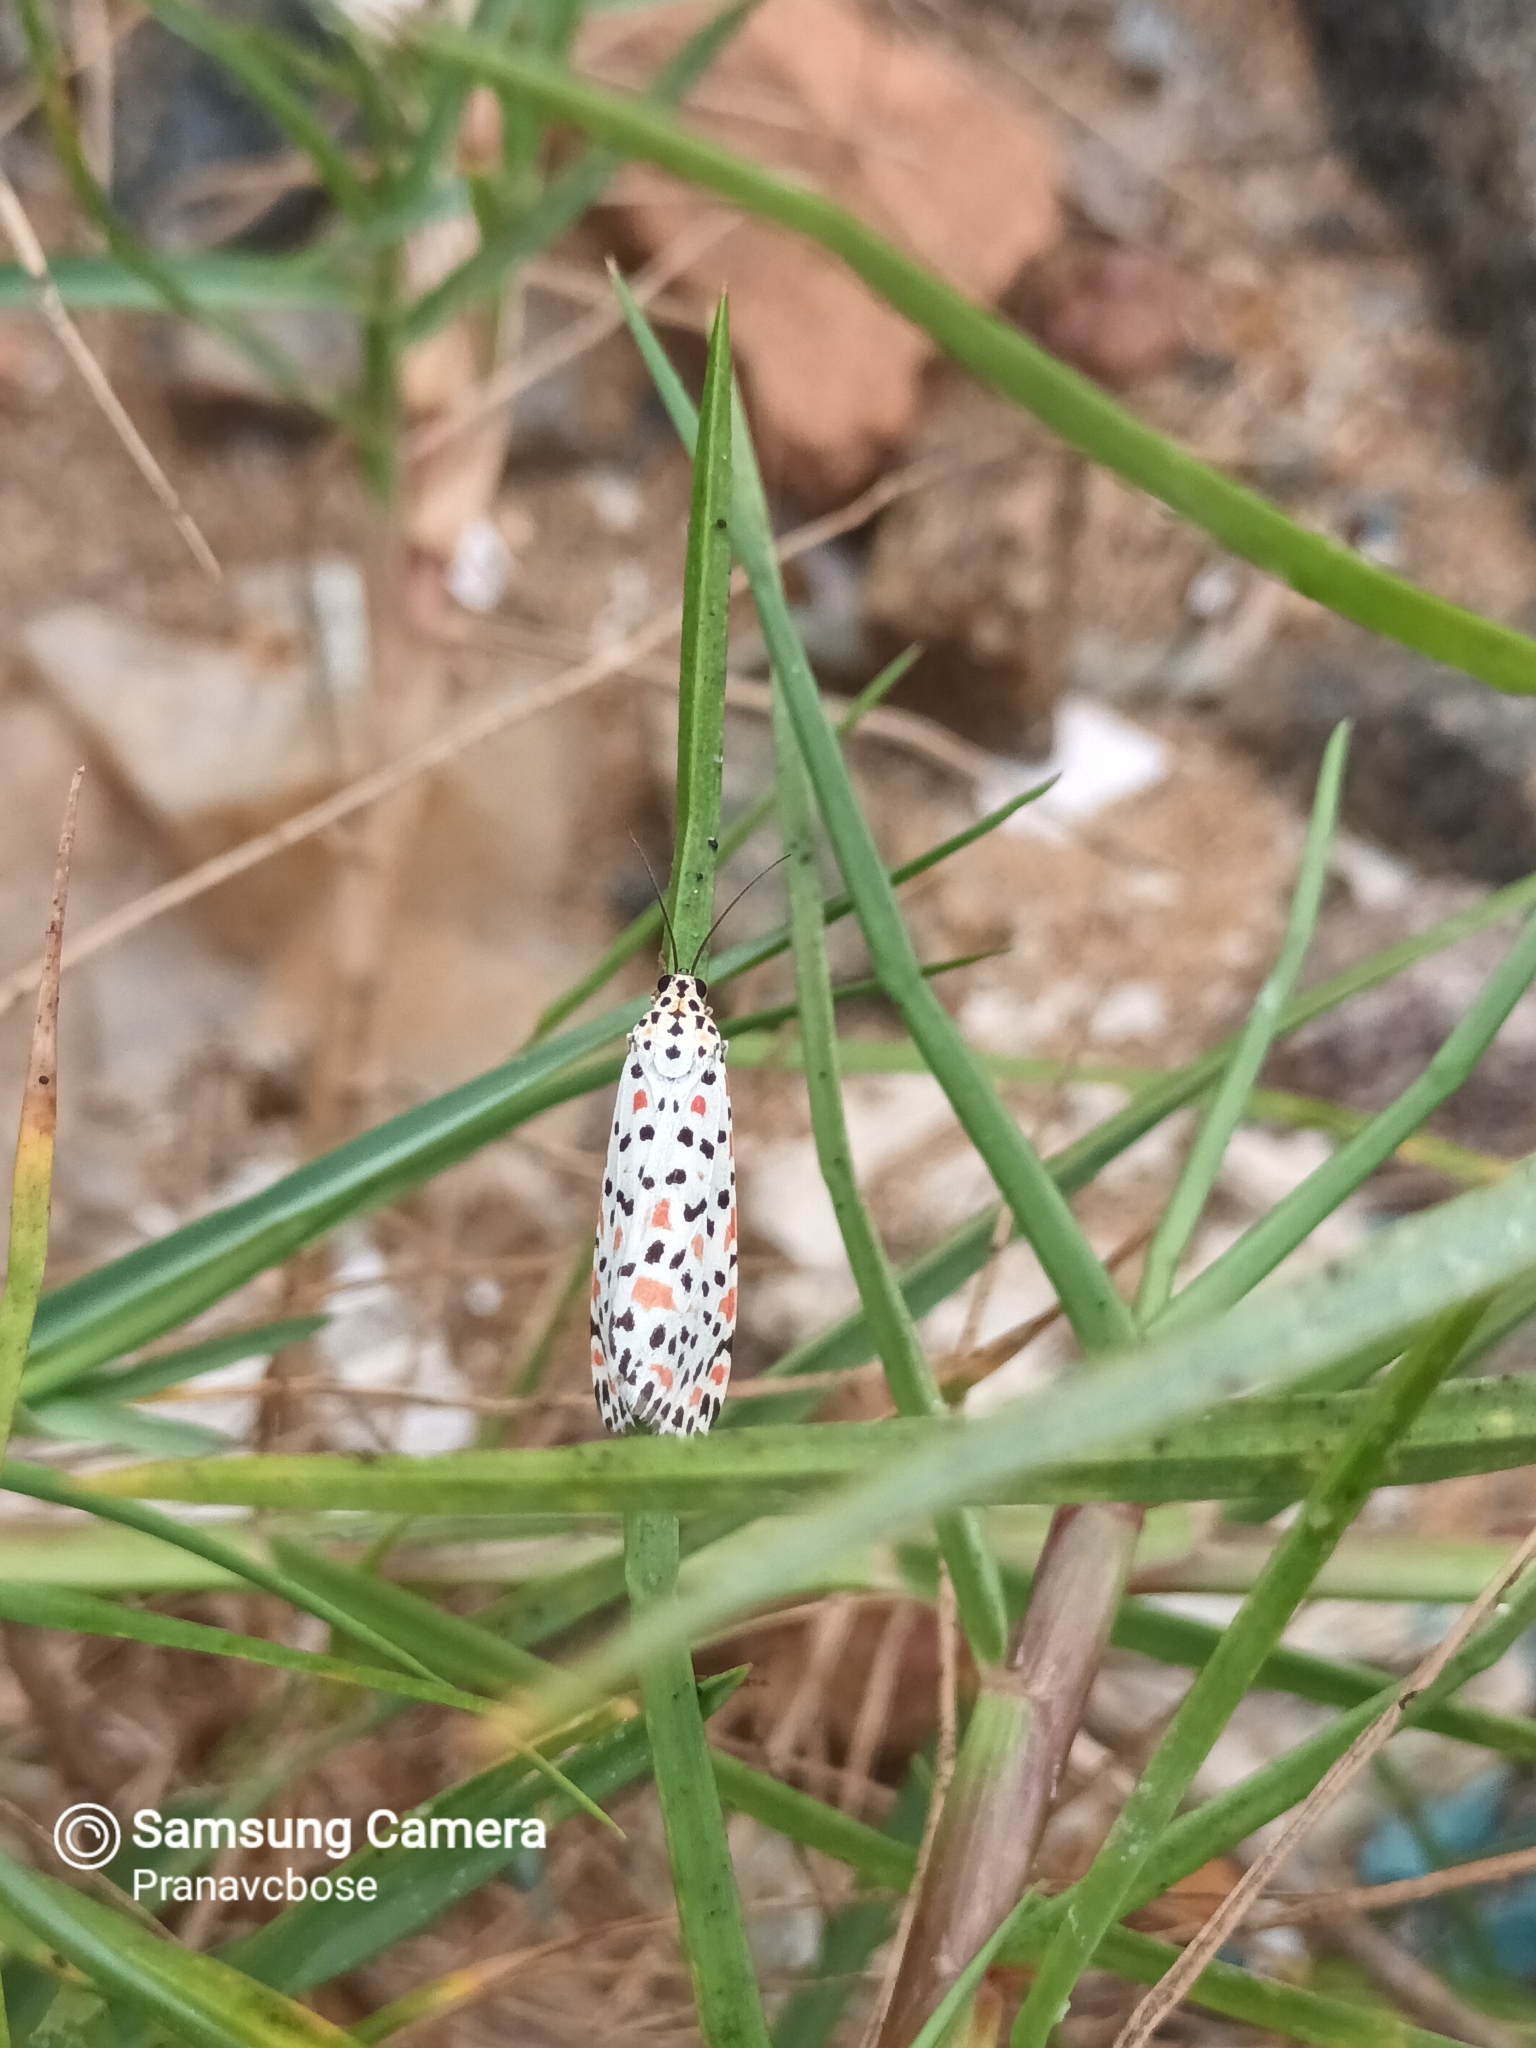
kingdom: Animalia
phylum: Arthropoda
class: Insecta
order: Lepidoptera
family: Erebidae
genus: Utetheisa
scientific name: Utetheisa lotrix
